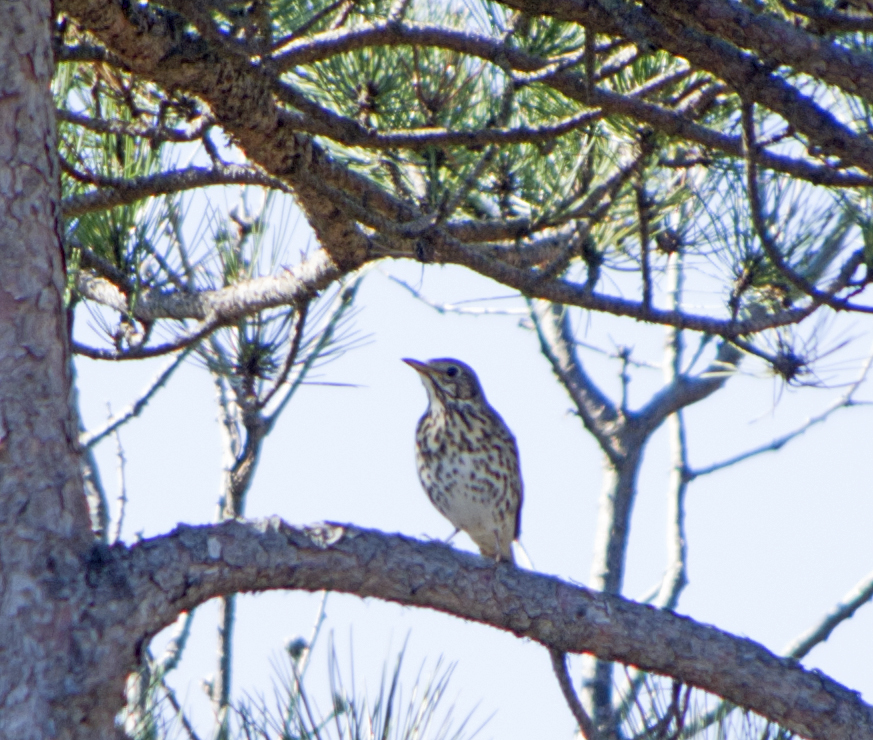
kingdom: Animalia
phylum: Chordata
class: Aves
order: Passeriformes
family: Turdidae
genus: Turdus
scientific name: Turdus philomelos
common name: Song thrush
